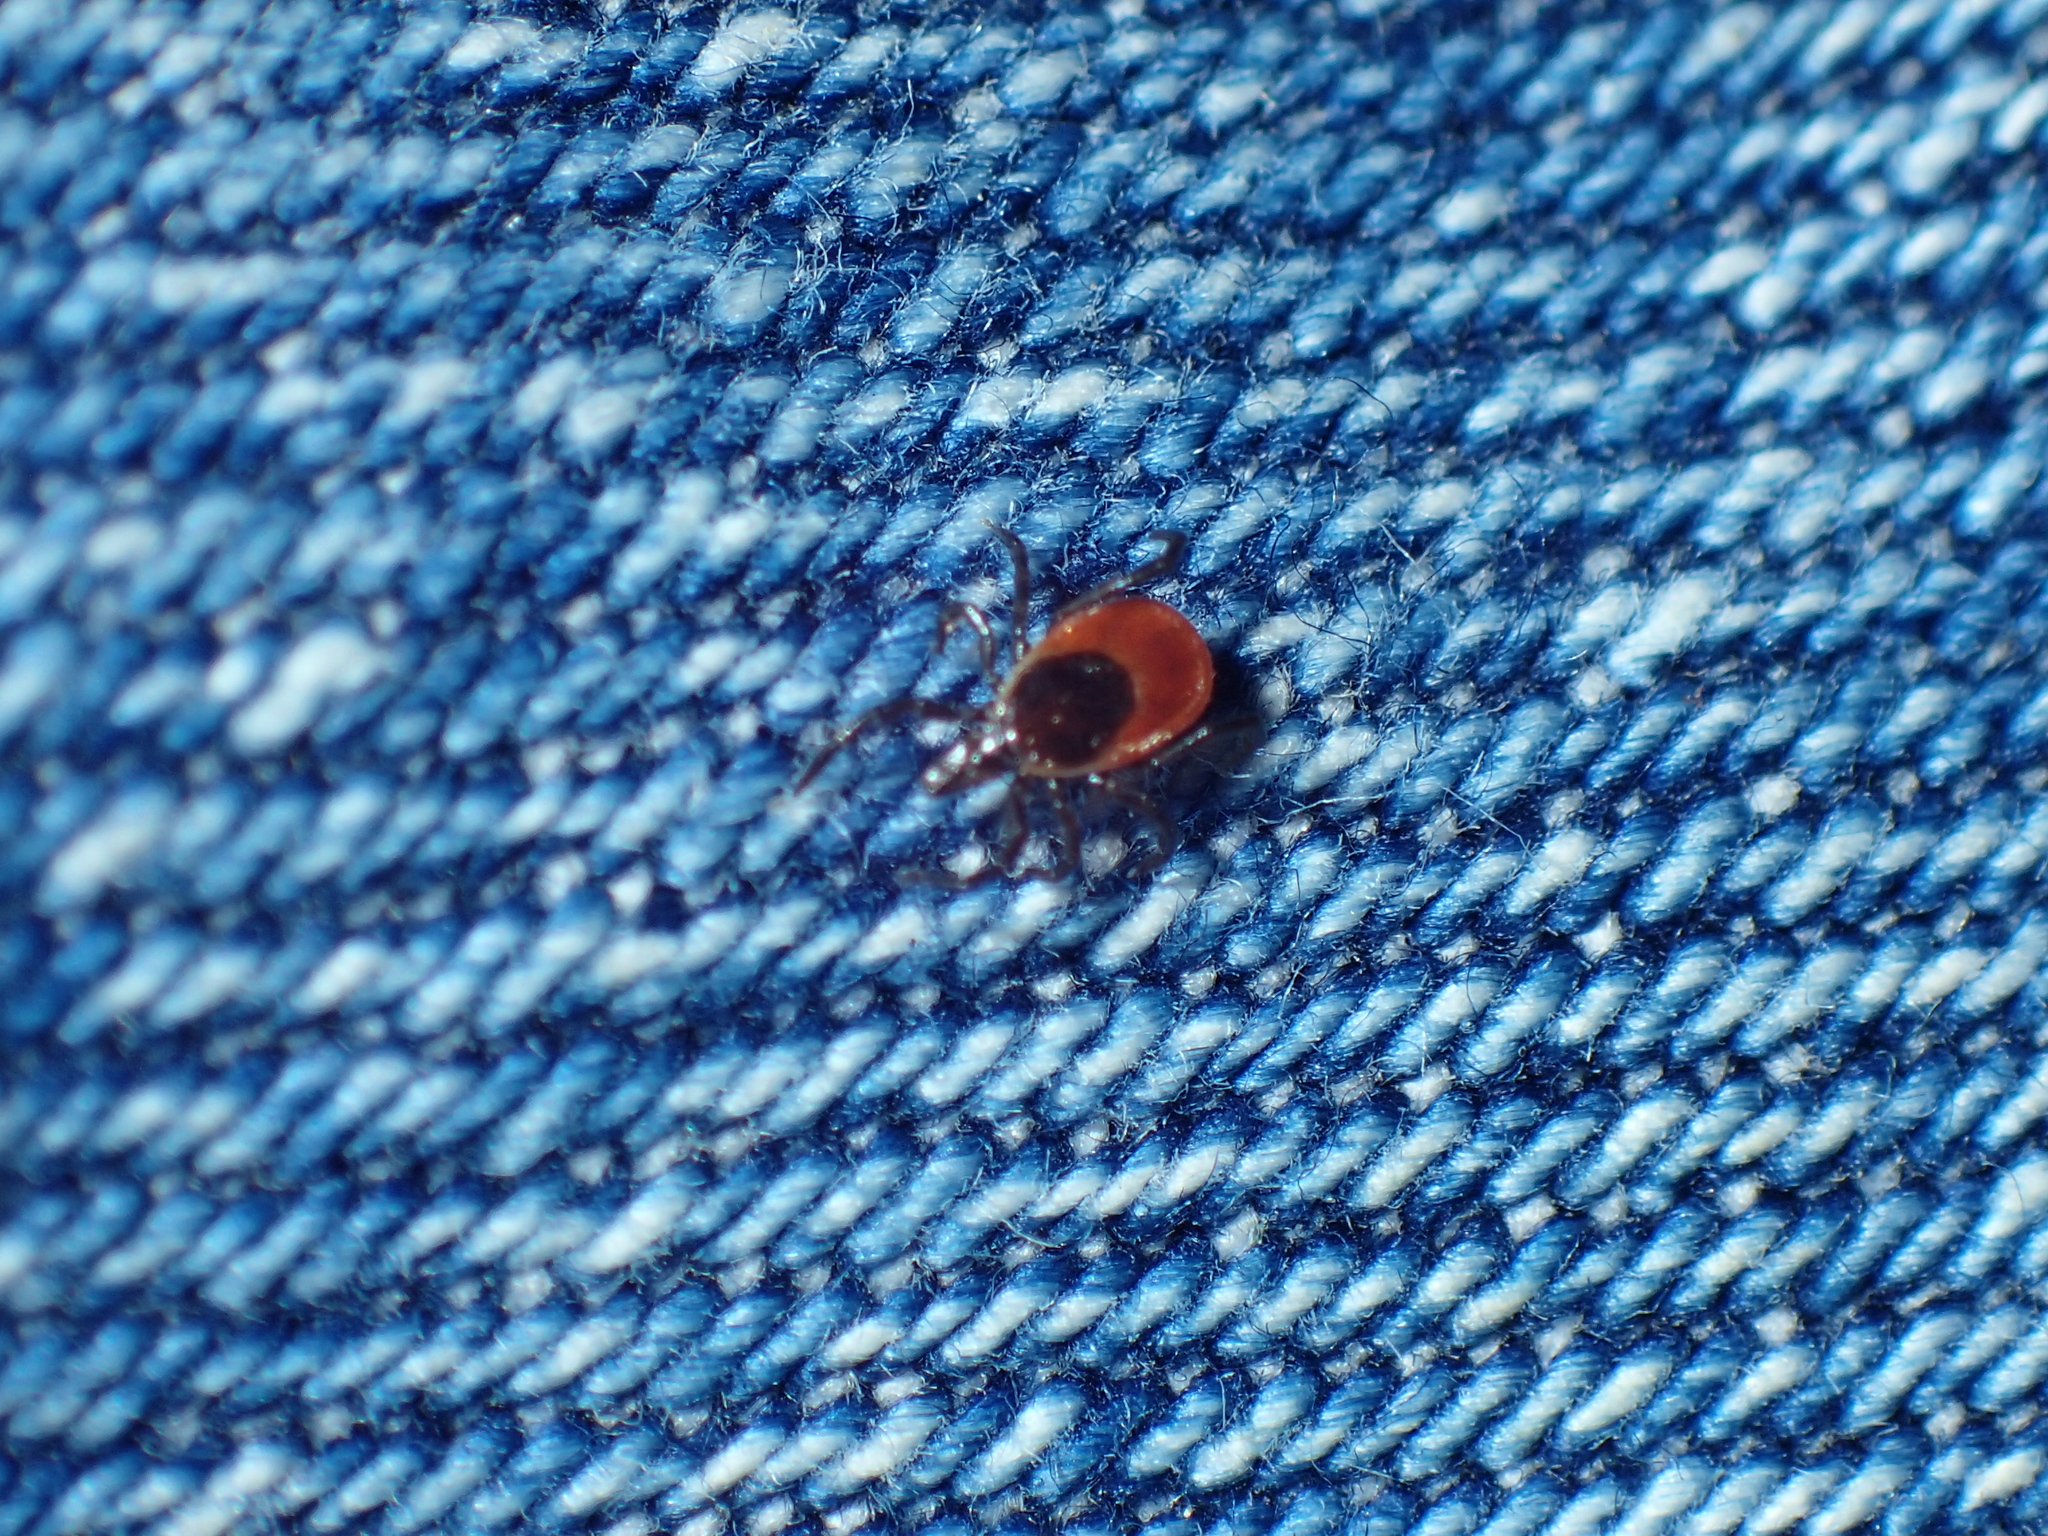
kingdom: Animalia
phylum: Arthropoda
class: Arachnida
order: Ixodida
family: Ixodidae
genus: Ixodes
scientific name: Ixodes scapularis
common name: Black legged tick
